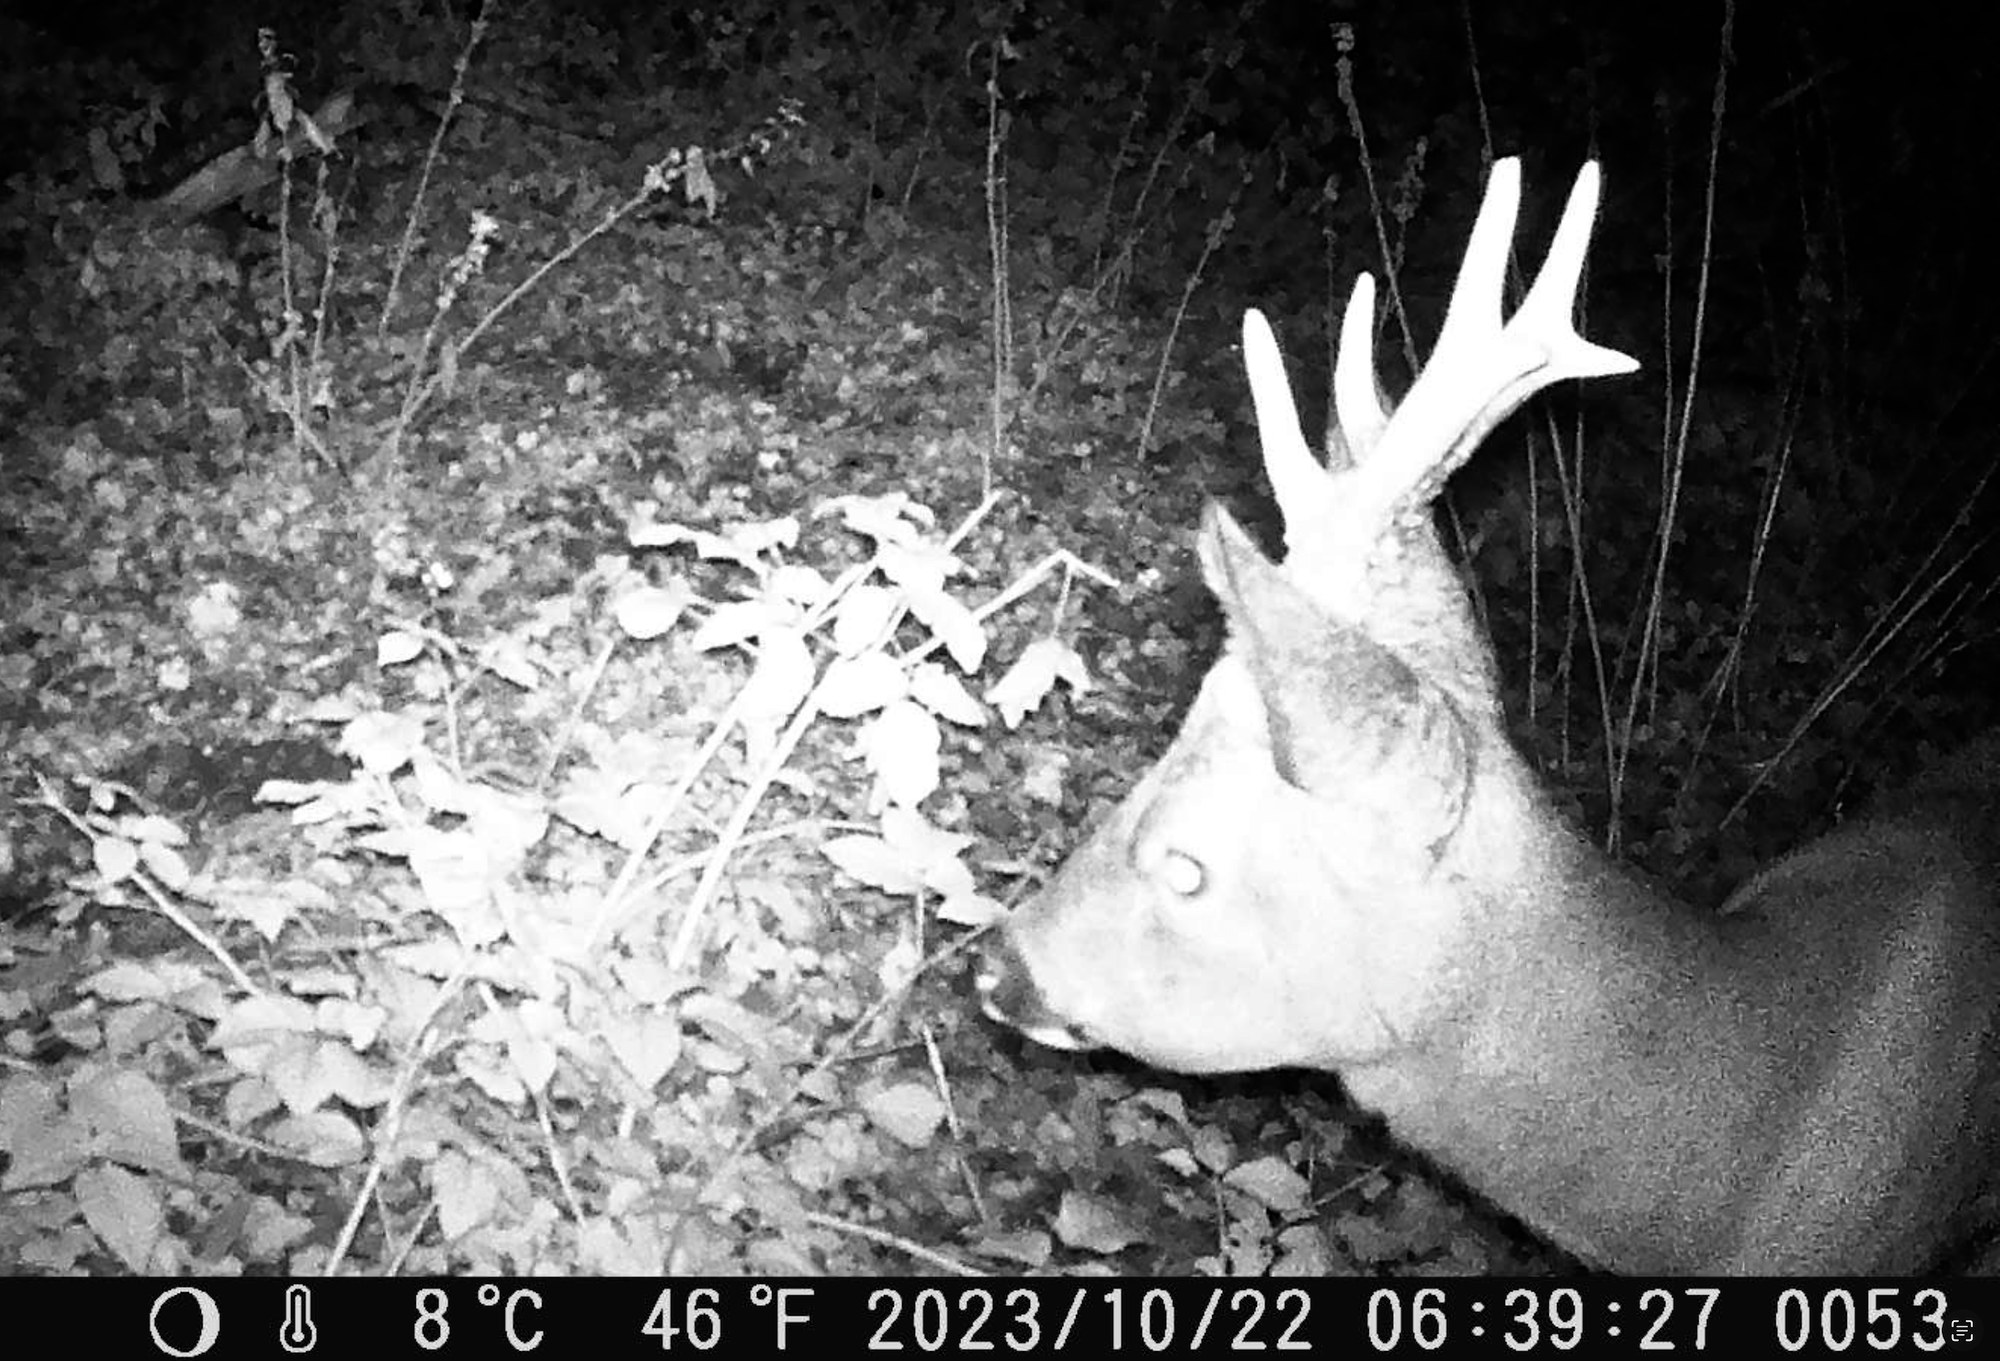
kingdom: Animalia
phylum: Chordata
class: Mammalia
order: Artiodactyla
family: Cervidae
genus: Capreolus
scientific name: Capreolus capreolus
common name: Western roe deer
